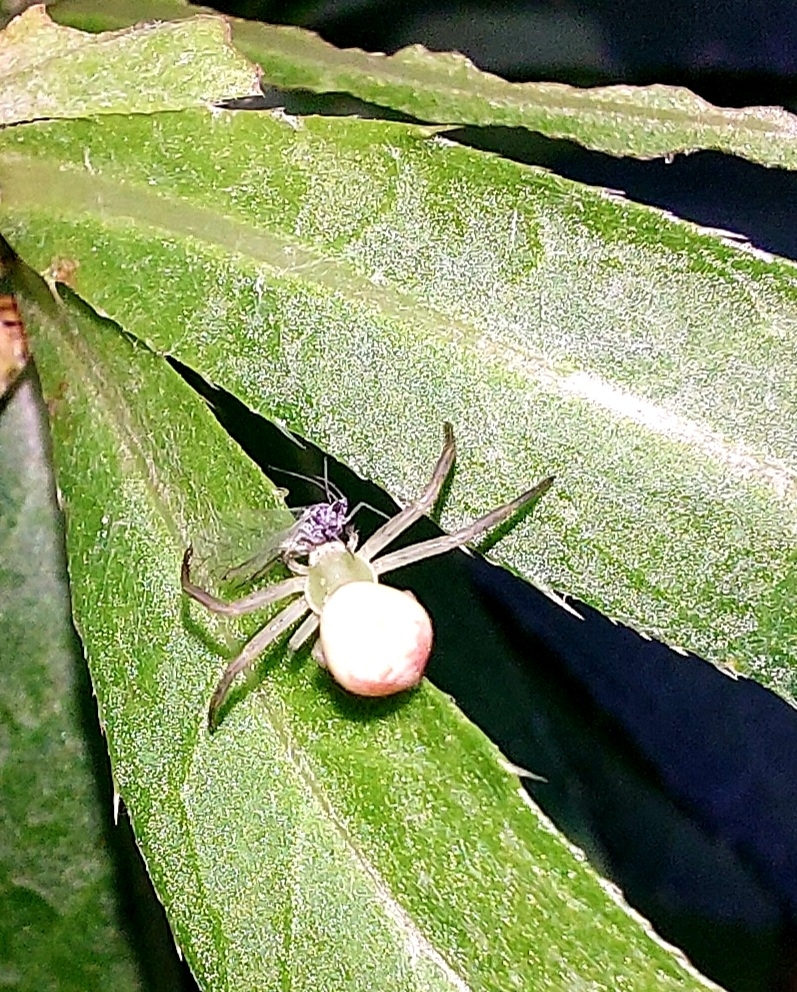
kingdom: Animalia
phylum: Arthropoda
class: Arachnida
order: Araneae
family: Thomisidae
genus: Misumena
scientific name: Misumena vatia
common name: Goldenrod crab spider
